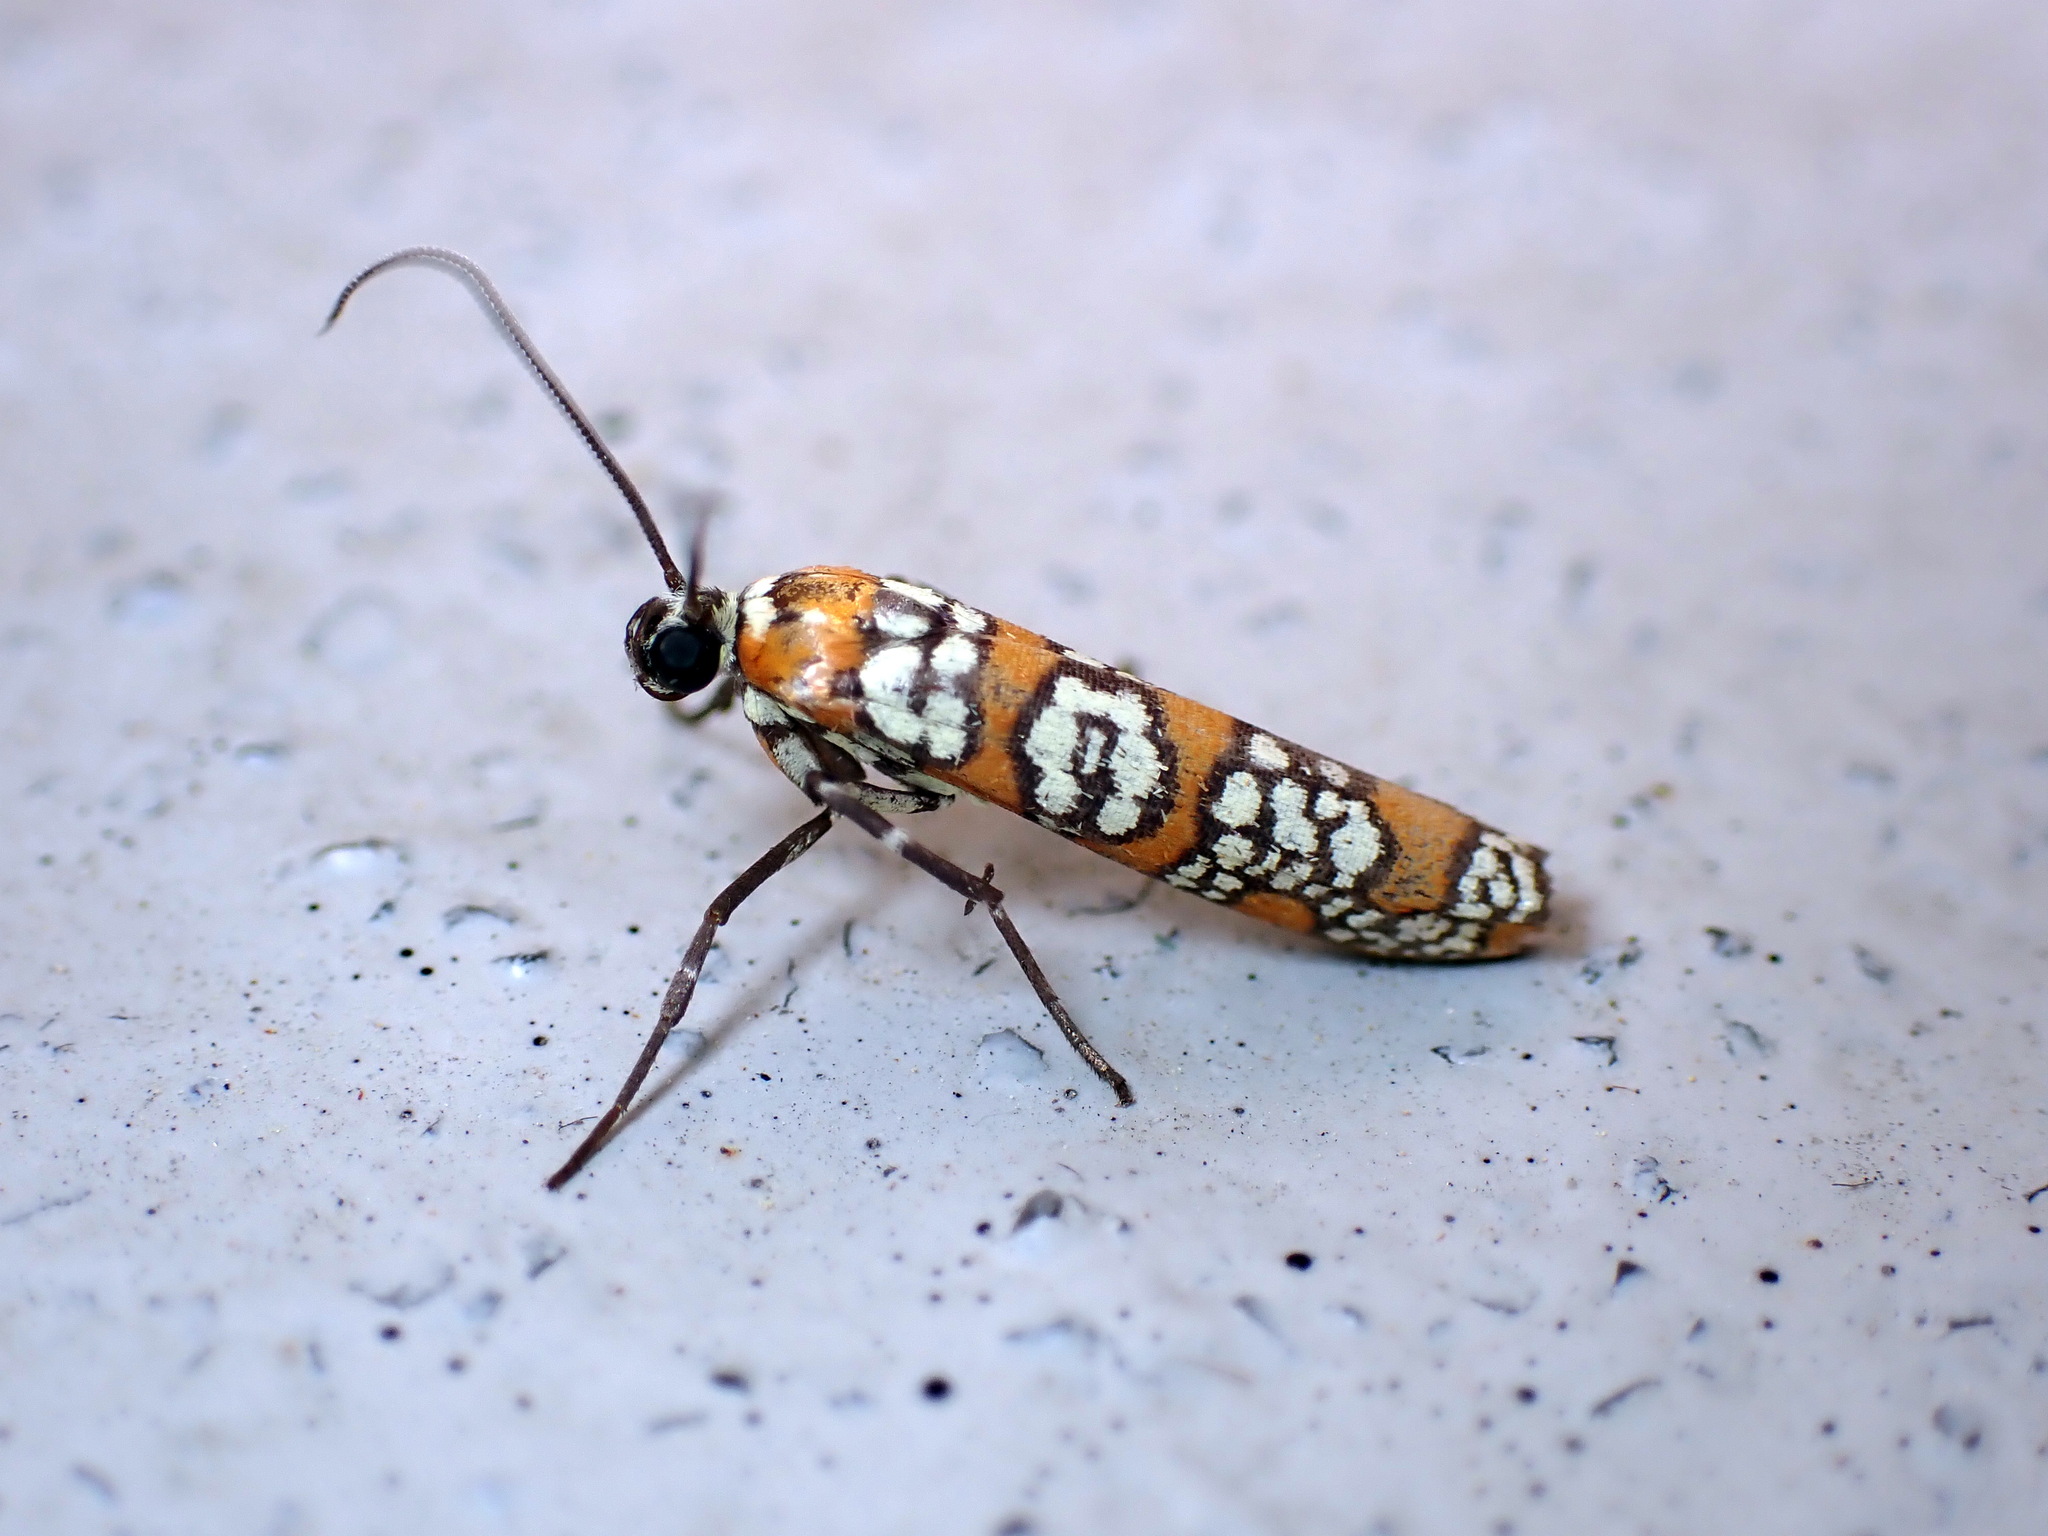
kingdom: Animalia
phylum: Arthropoda
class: Insecta
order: Lepidoptera
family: Attevidae
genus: Atteva
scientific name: Atteva punctella
